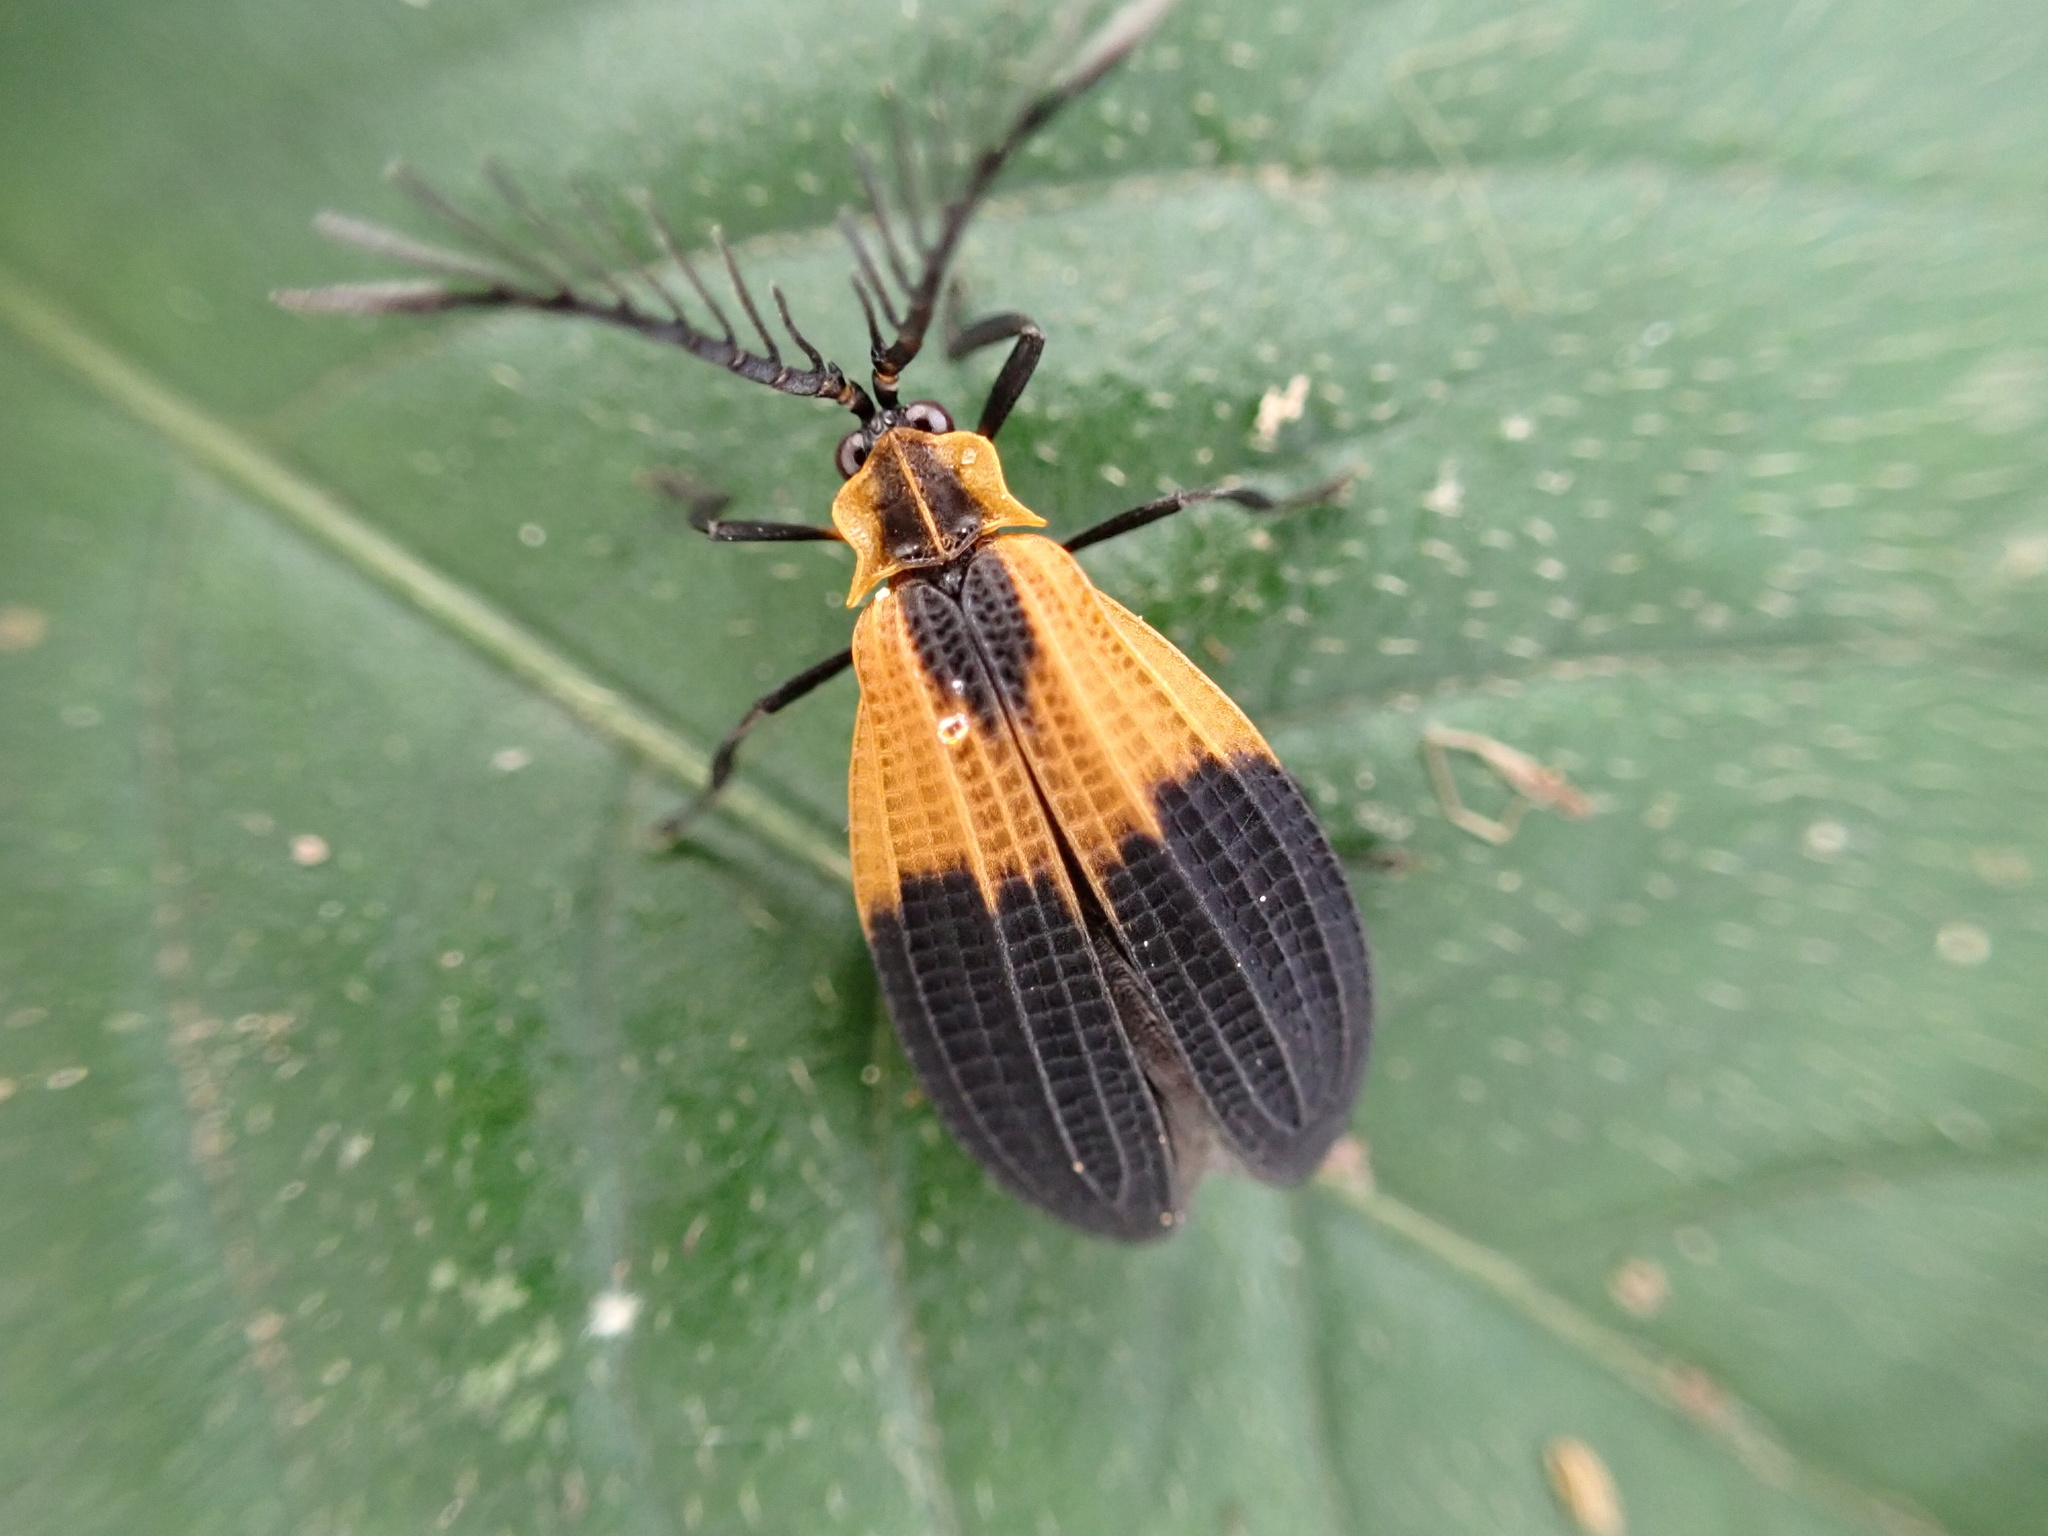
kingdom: Animalia
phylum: Arthropoda
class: Insecta
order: Coleoptera
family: Lycidae
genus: Caenia
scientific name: Caenia dimidiata
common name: Terminal net-winged beetle
